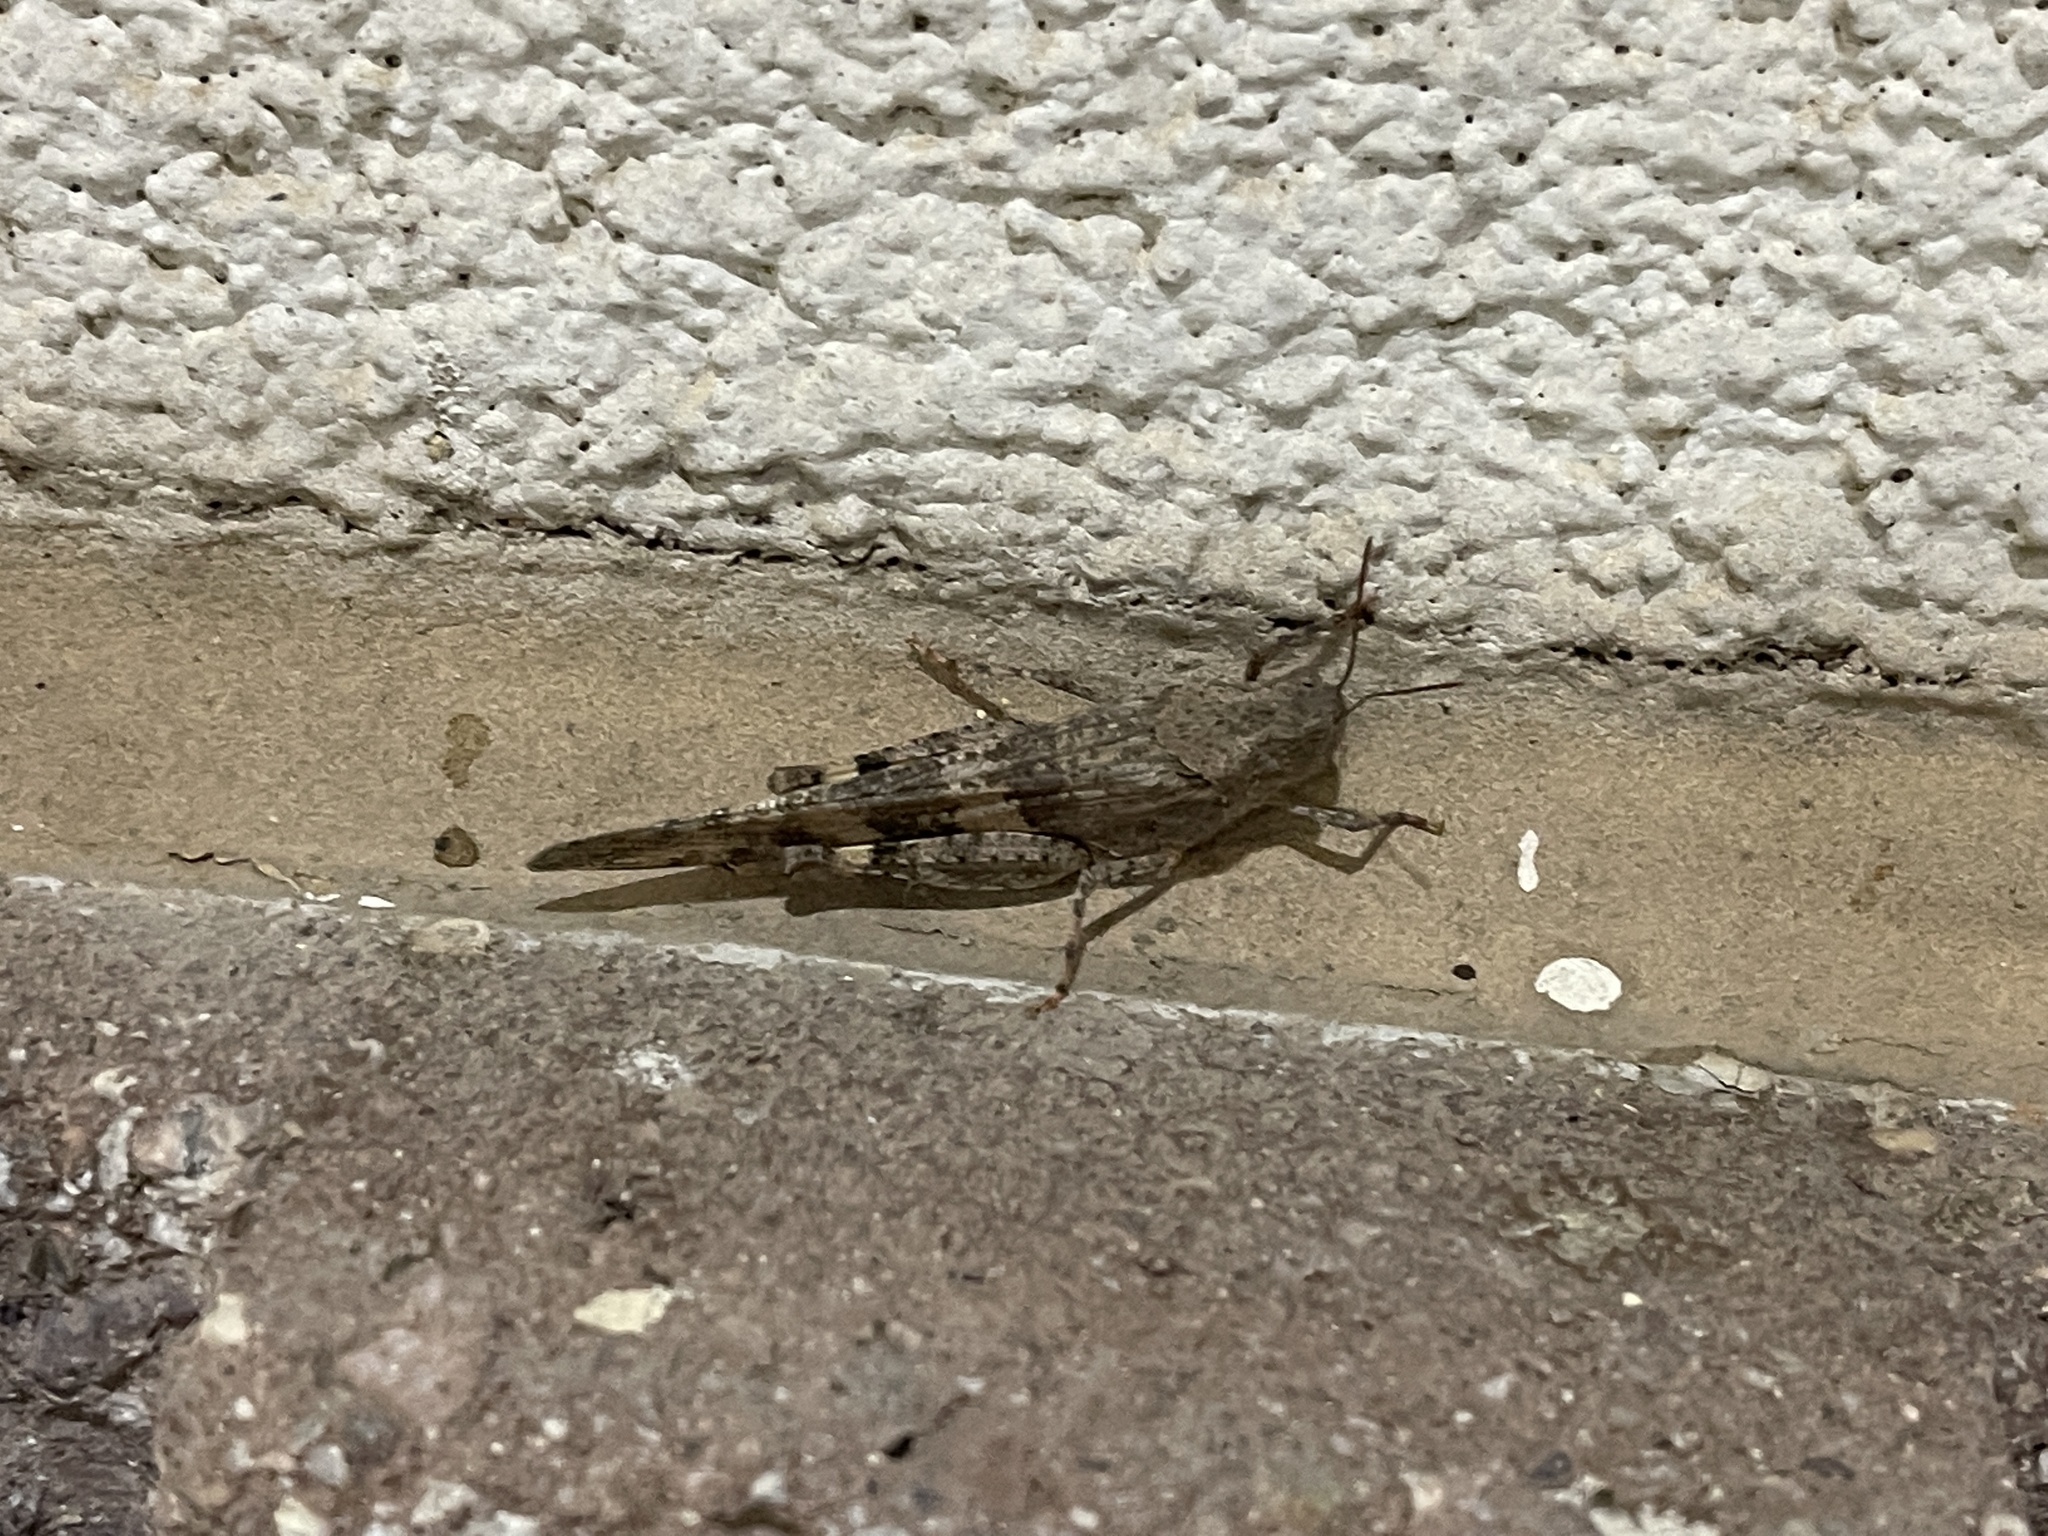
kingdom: Animalia
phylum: Arthropoda
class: Insecta
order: Orthoptera
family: Acrididae
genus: Trimerotropis
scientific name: Trimerotropis pallidipennis
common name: Pallid-winged grasshopper
